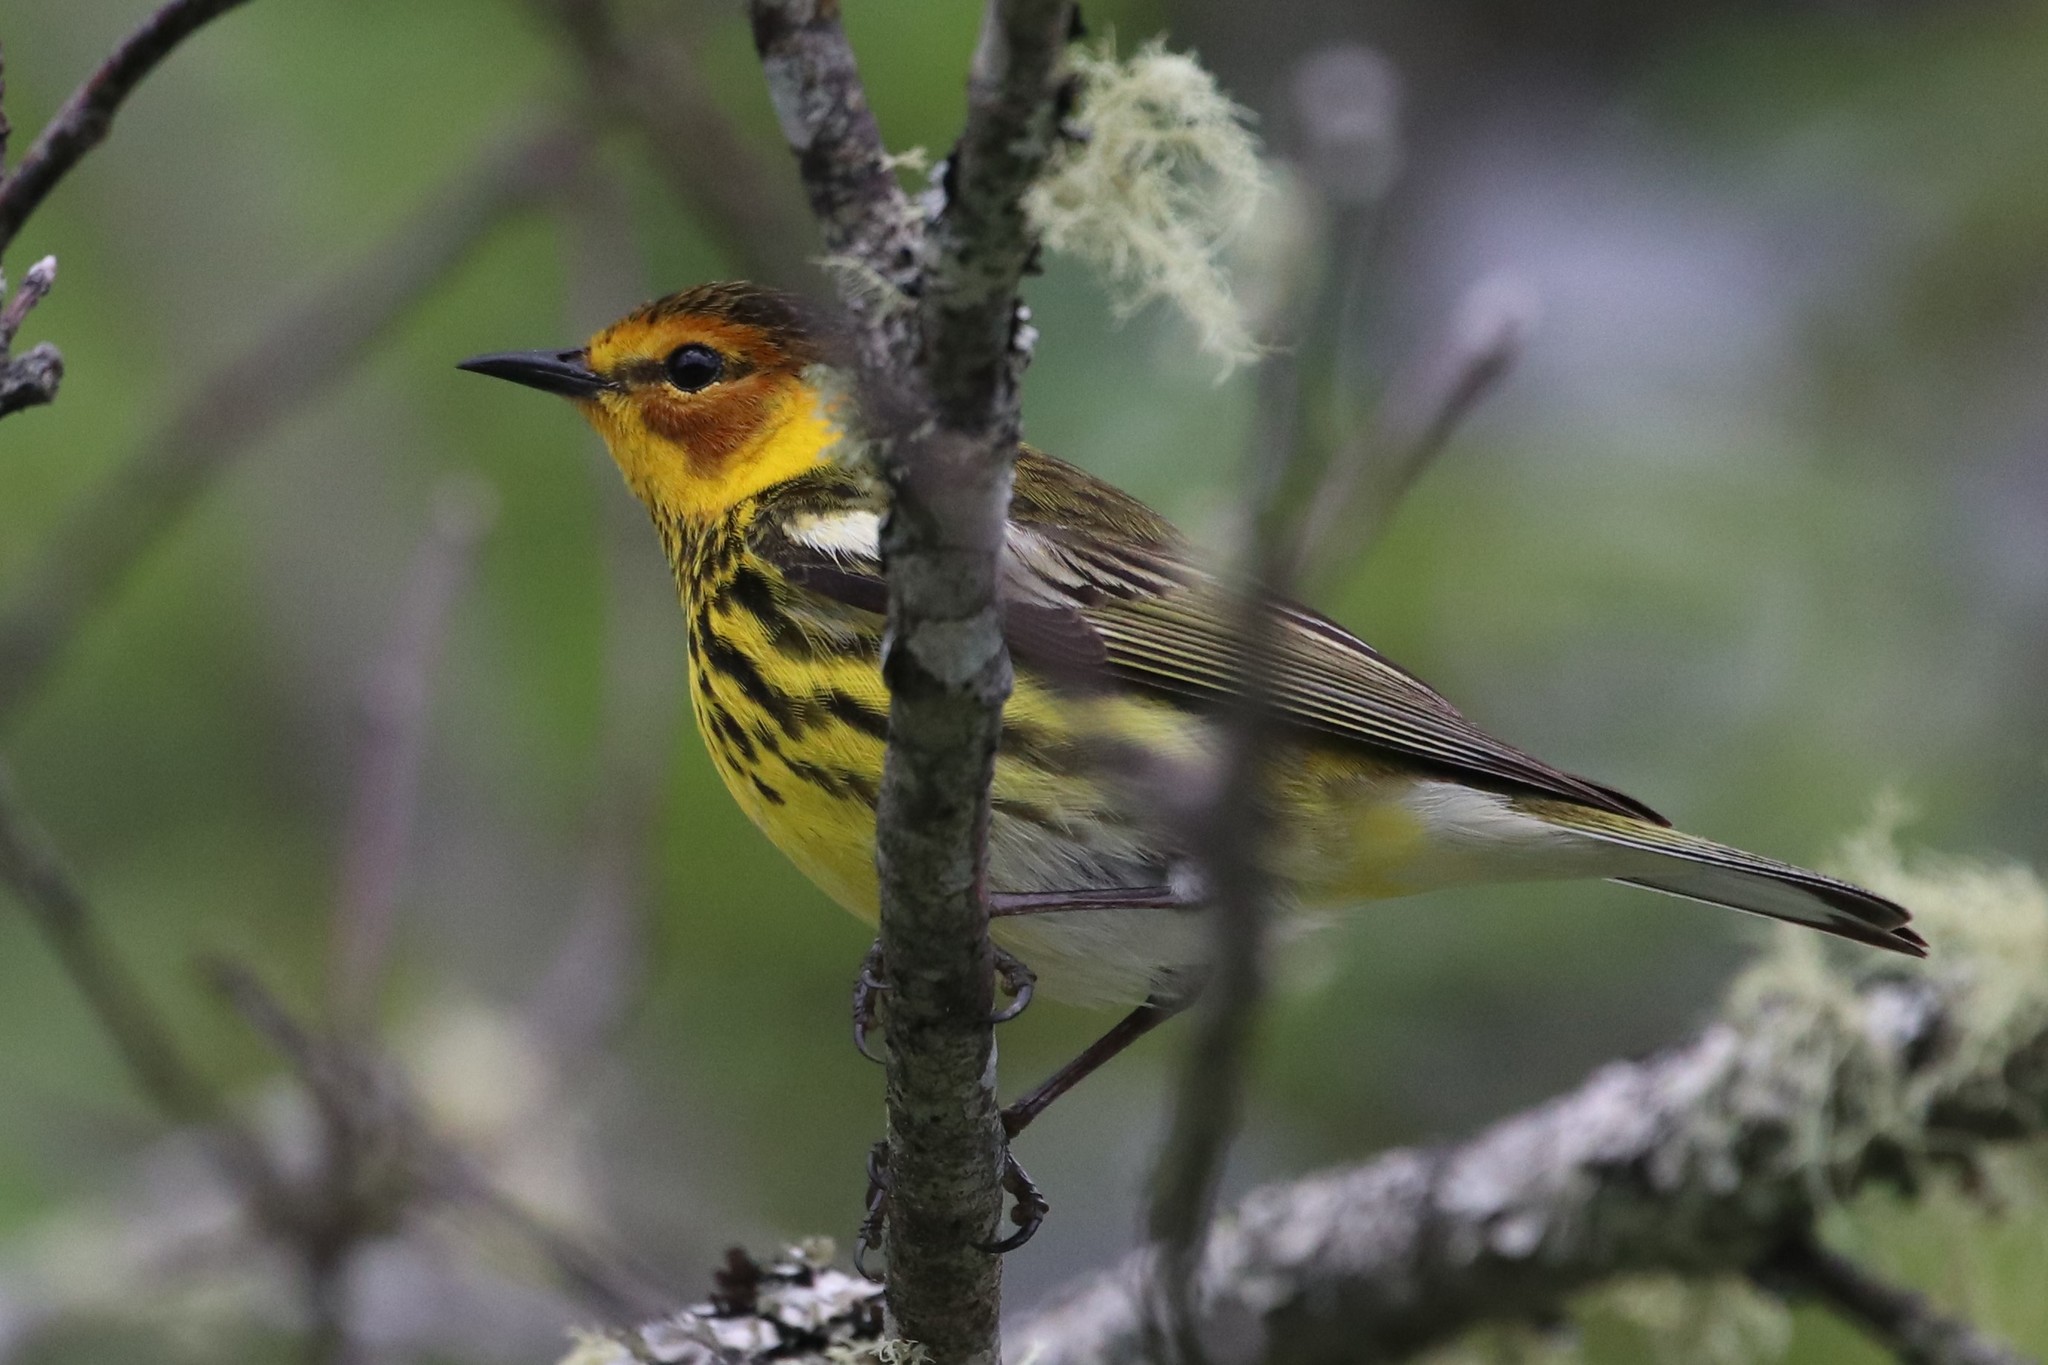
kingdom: Animalia
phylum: Chordata
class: Aves
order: Passeriformes
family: Parulidae
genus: Setophaga
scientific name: Setophaga tigrina
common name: Cape may warbler
